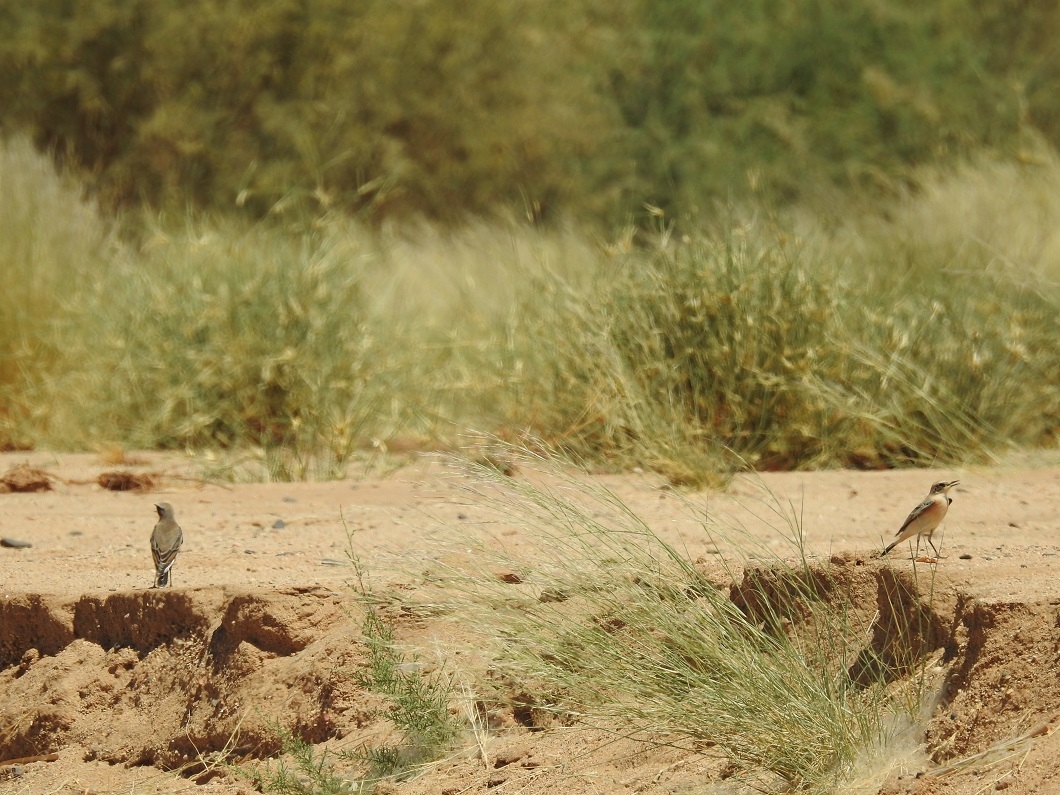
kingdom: Animalia
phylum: Chordata
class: Aves
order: Passeriformes
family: Muscicapidae
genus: Oenanthe
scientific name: Oenanthe oenanthe
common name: Northern wheatear
